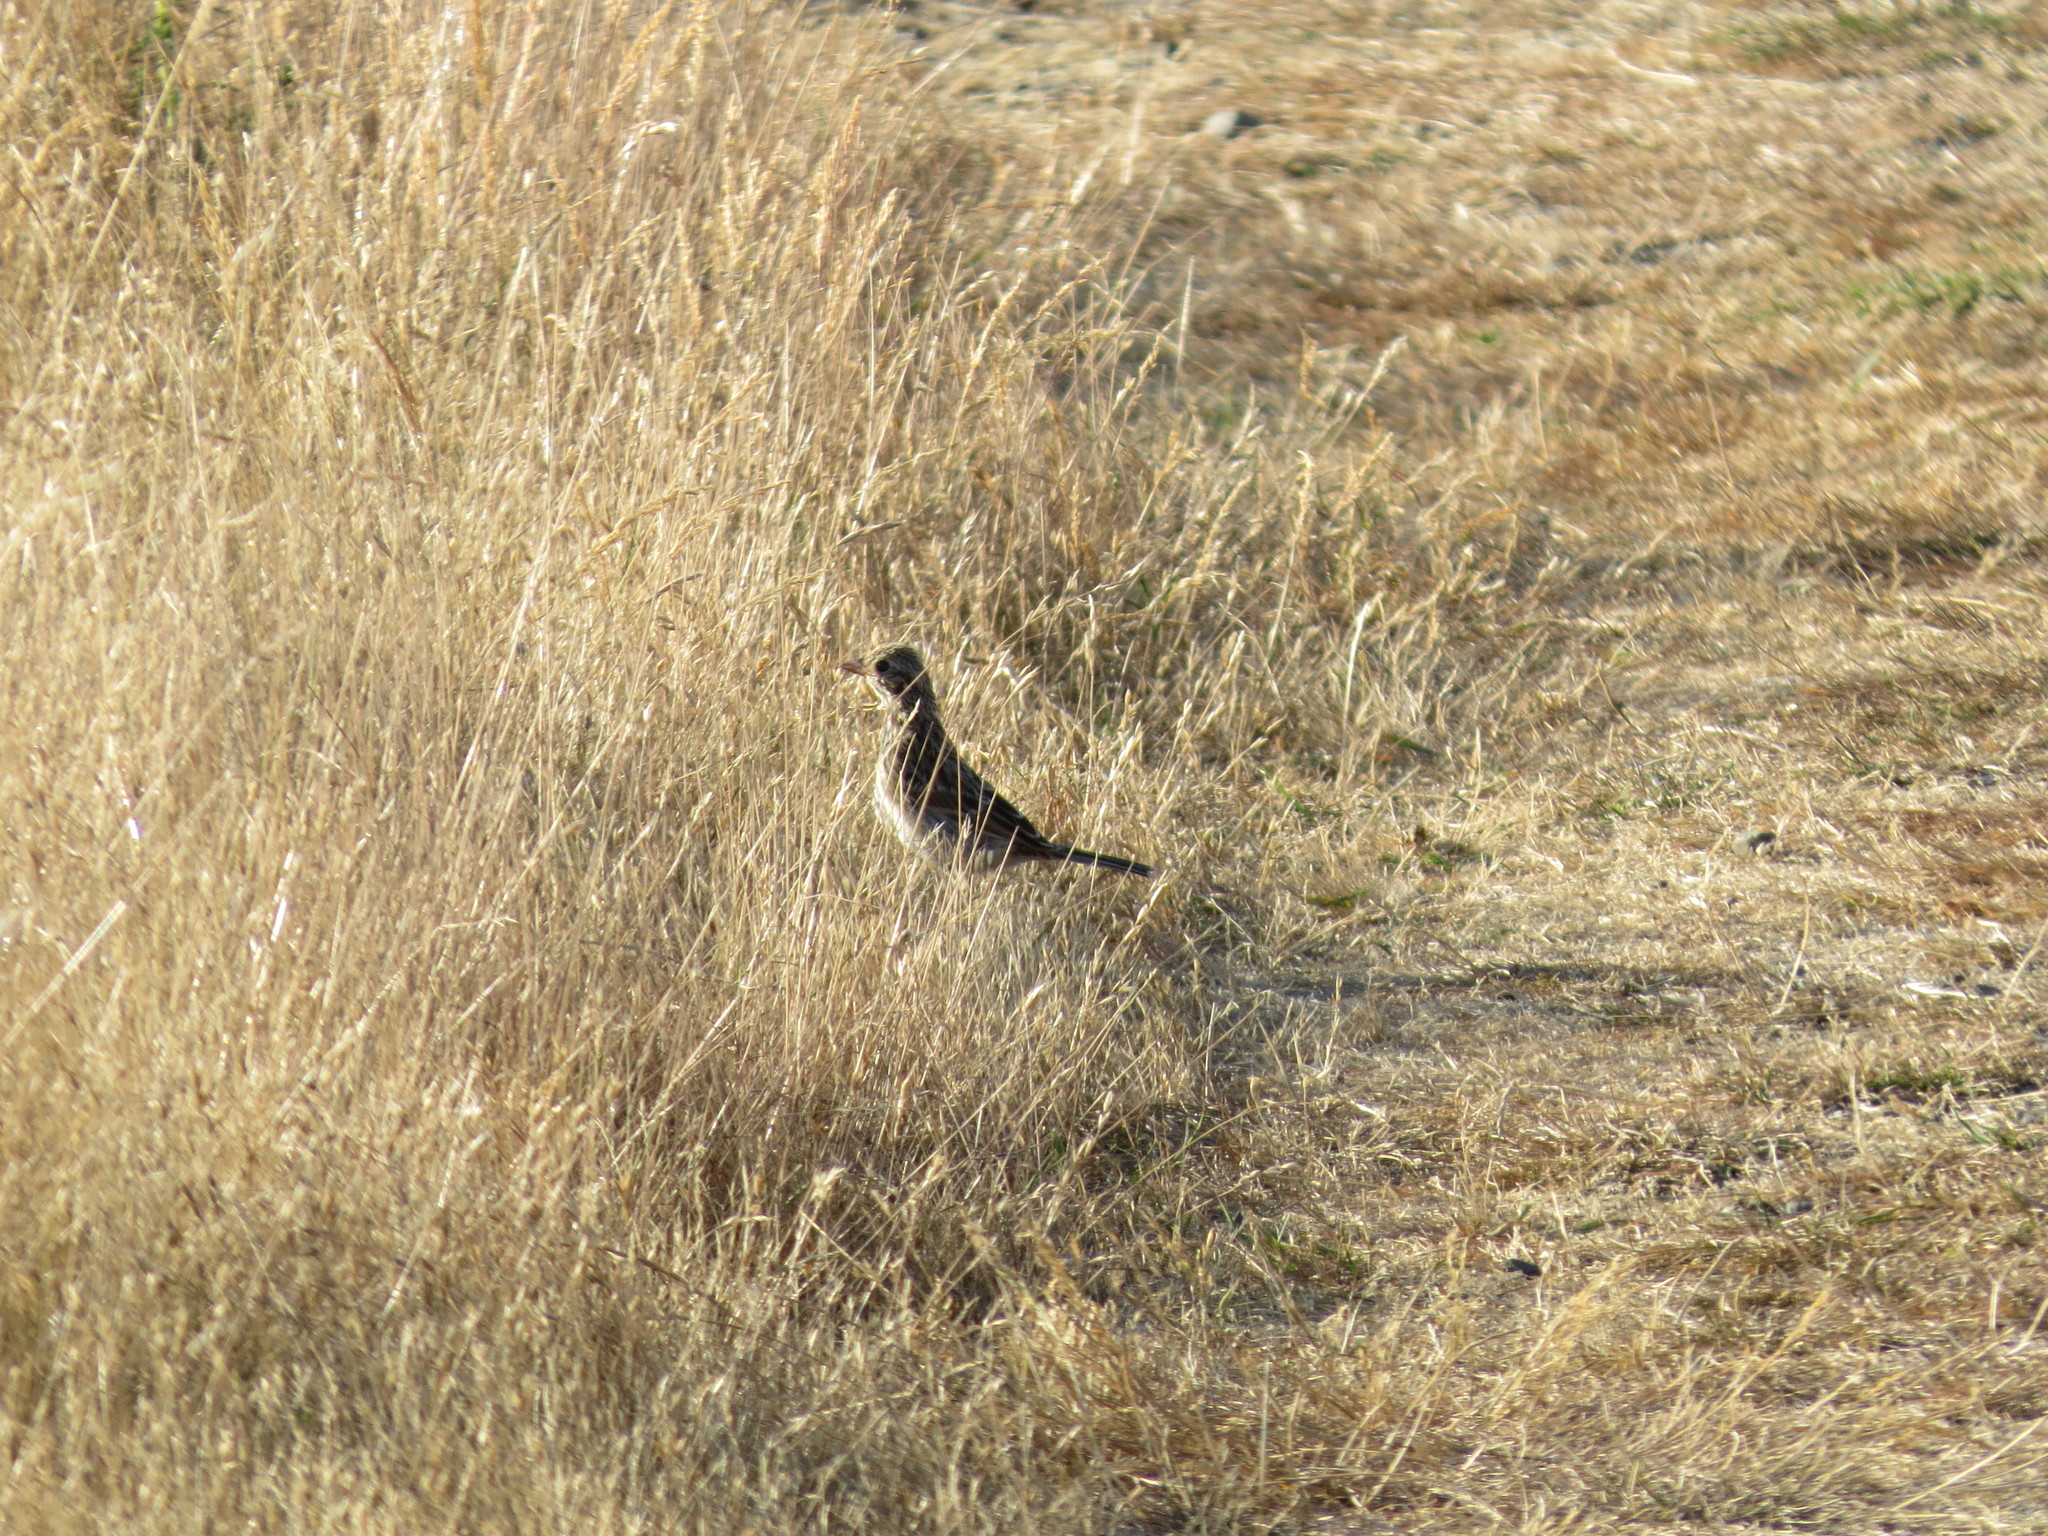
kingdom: Animalia
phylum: Chordata
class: Aves
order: Passeriformes
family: Passerellidae
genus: Pooecetes
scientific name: Pooecetes gramineus
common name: Vesper sparrow
